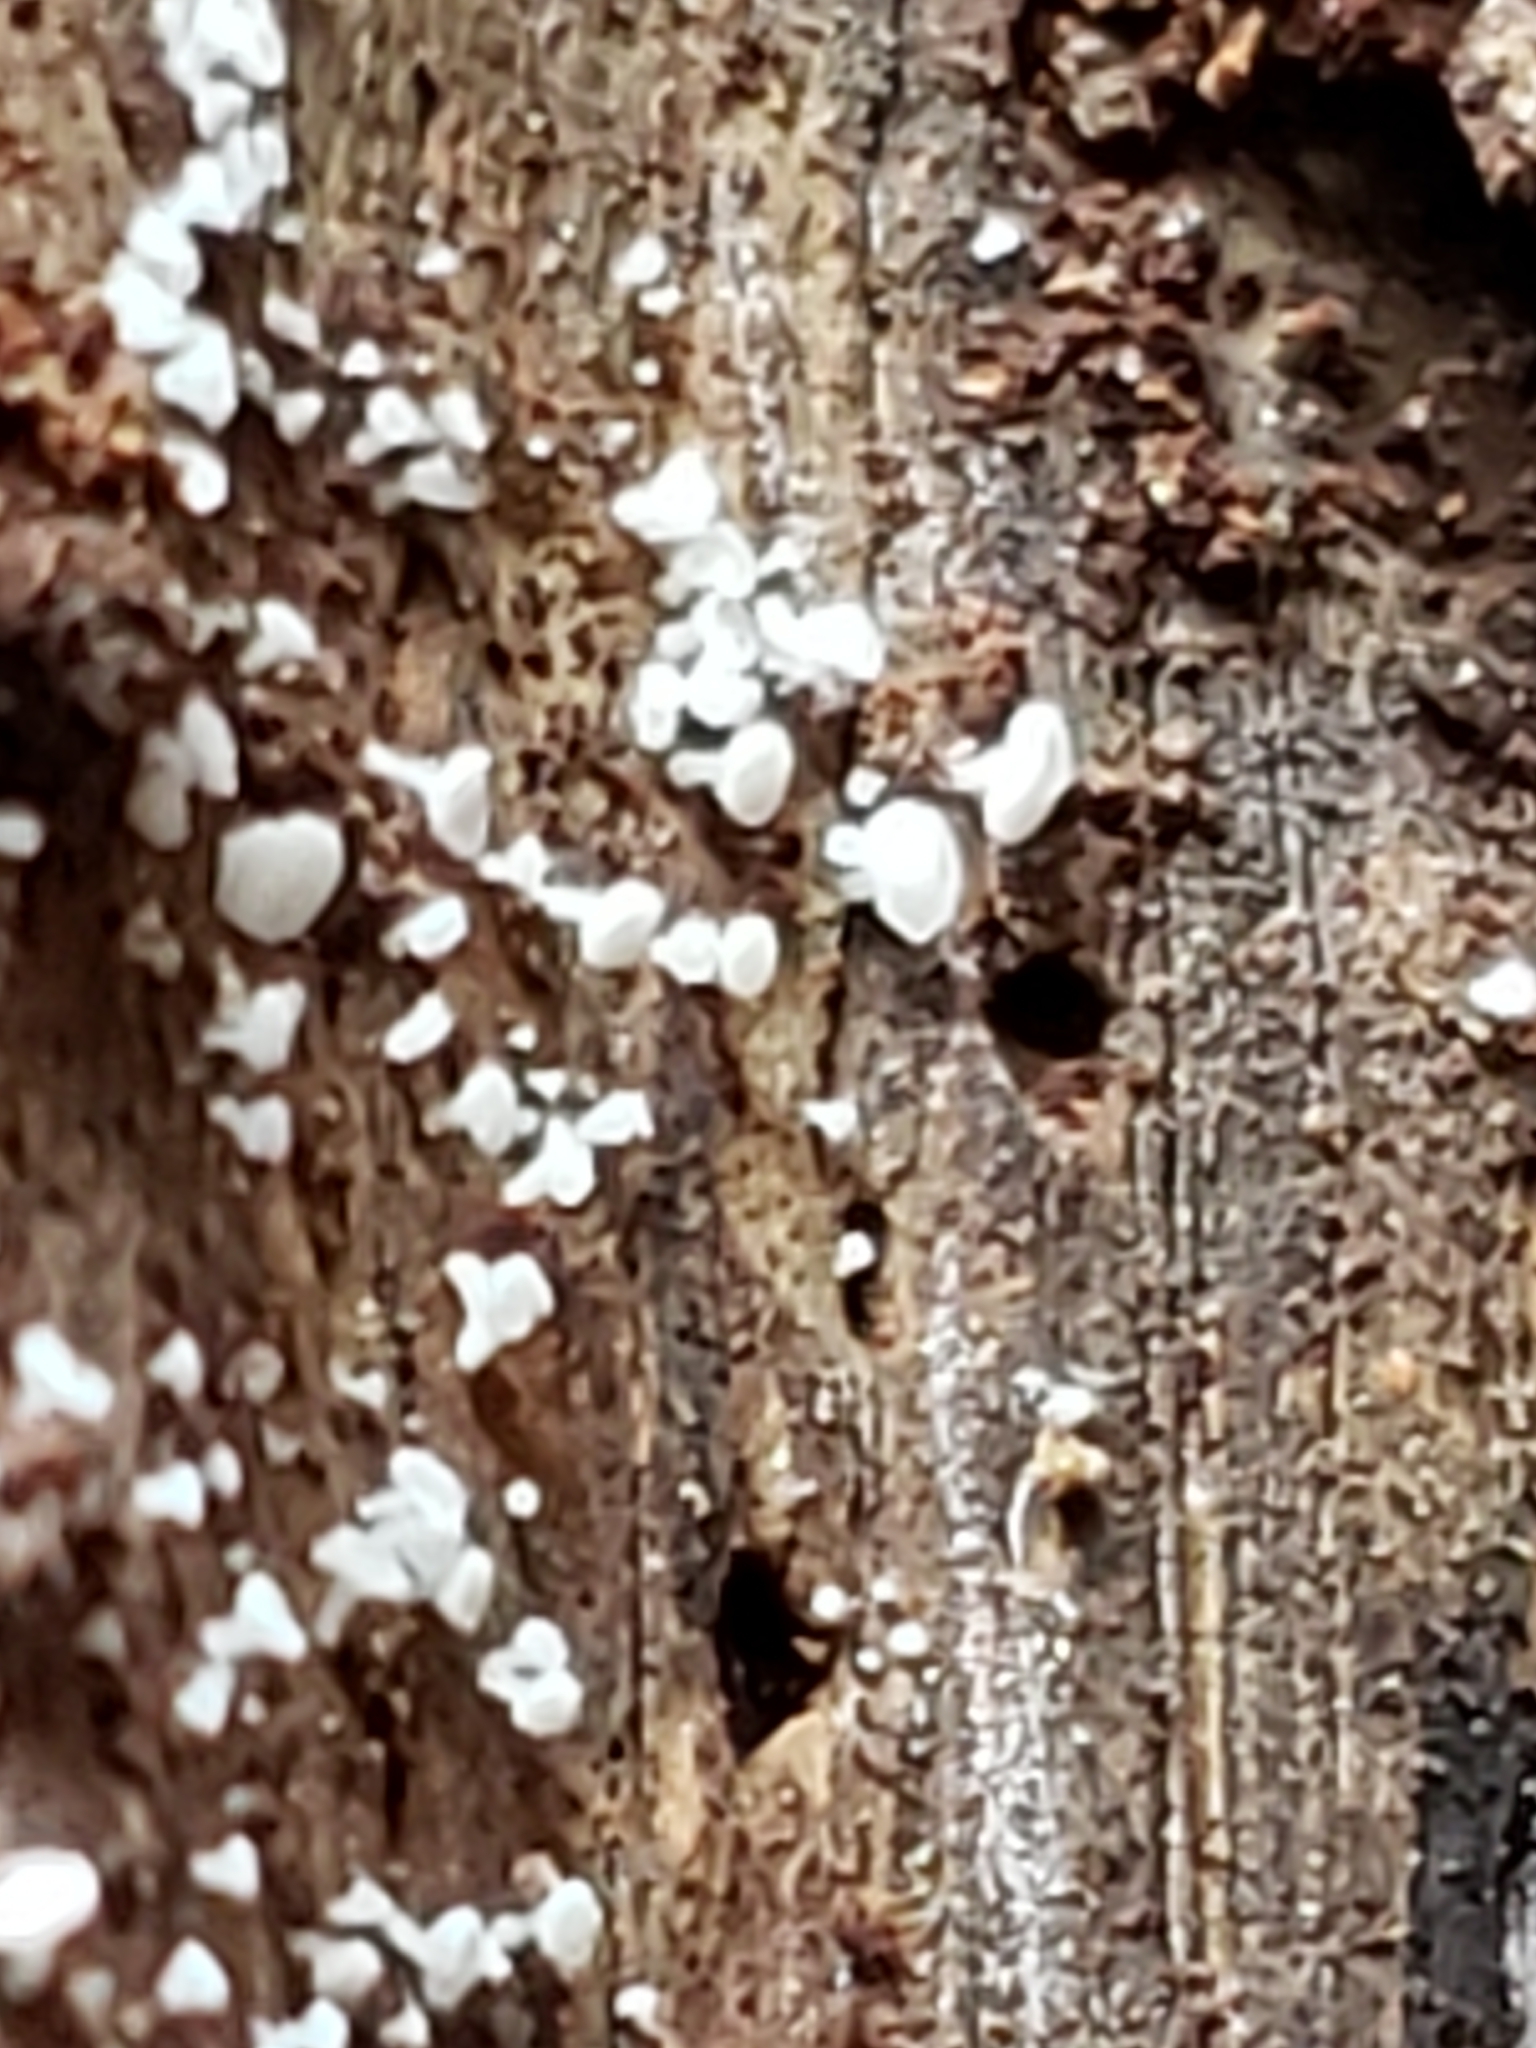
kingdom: Fungi
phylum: Ascomycota
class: Leotiomycetes
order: Helotiales
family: Lachnaceae
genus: Lachnum
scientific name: Lachnum virgineum
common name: Snowy disco
